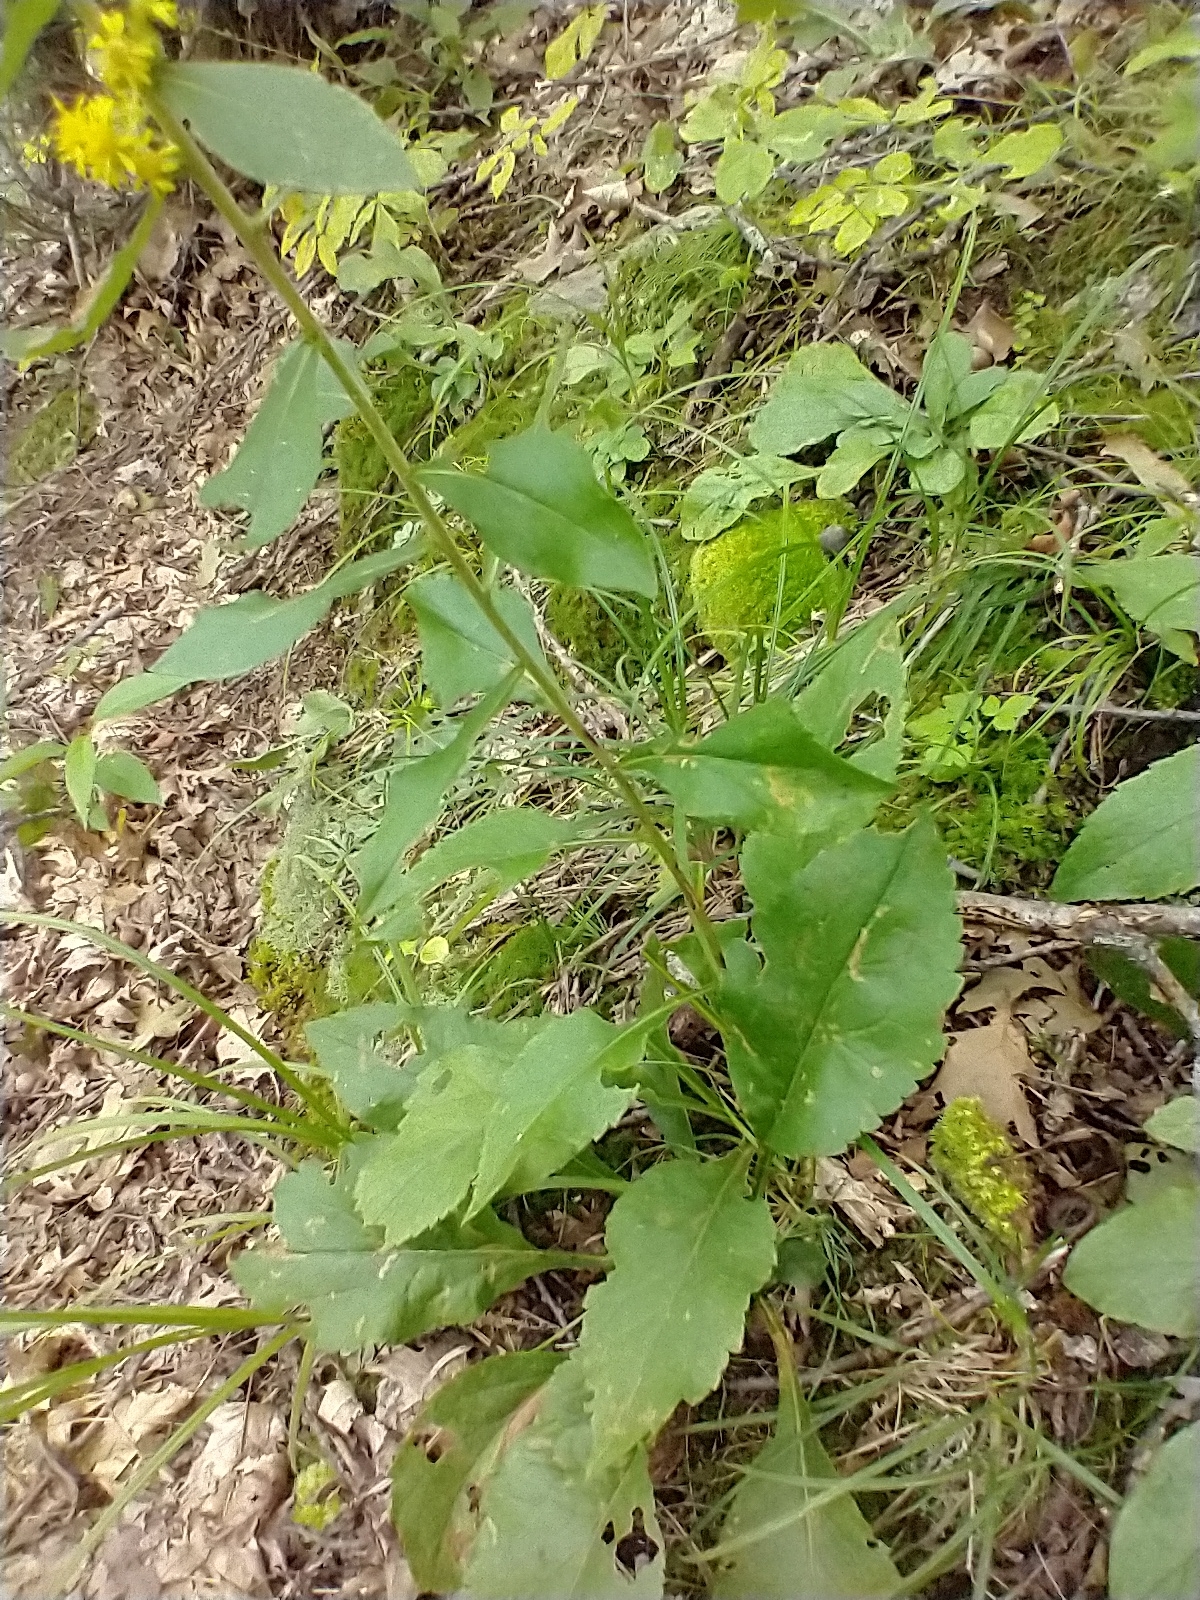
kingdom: Plantae
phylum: Tracheophyta
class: Magnoliopsida
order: Asterales
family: Asteraceae
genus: Solidago
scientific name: Solidago squarrosa
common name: Stout goldenrod
